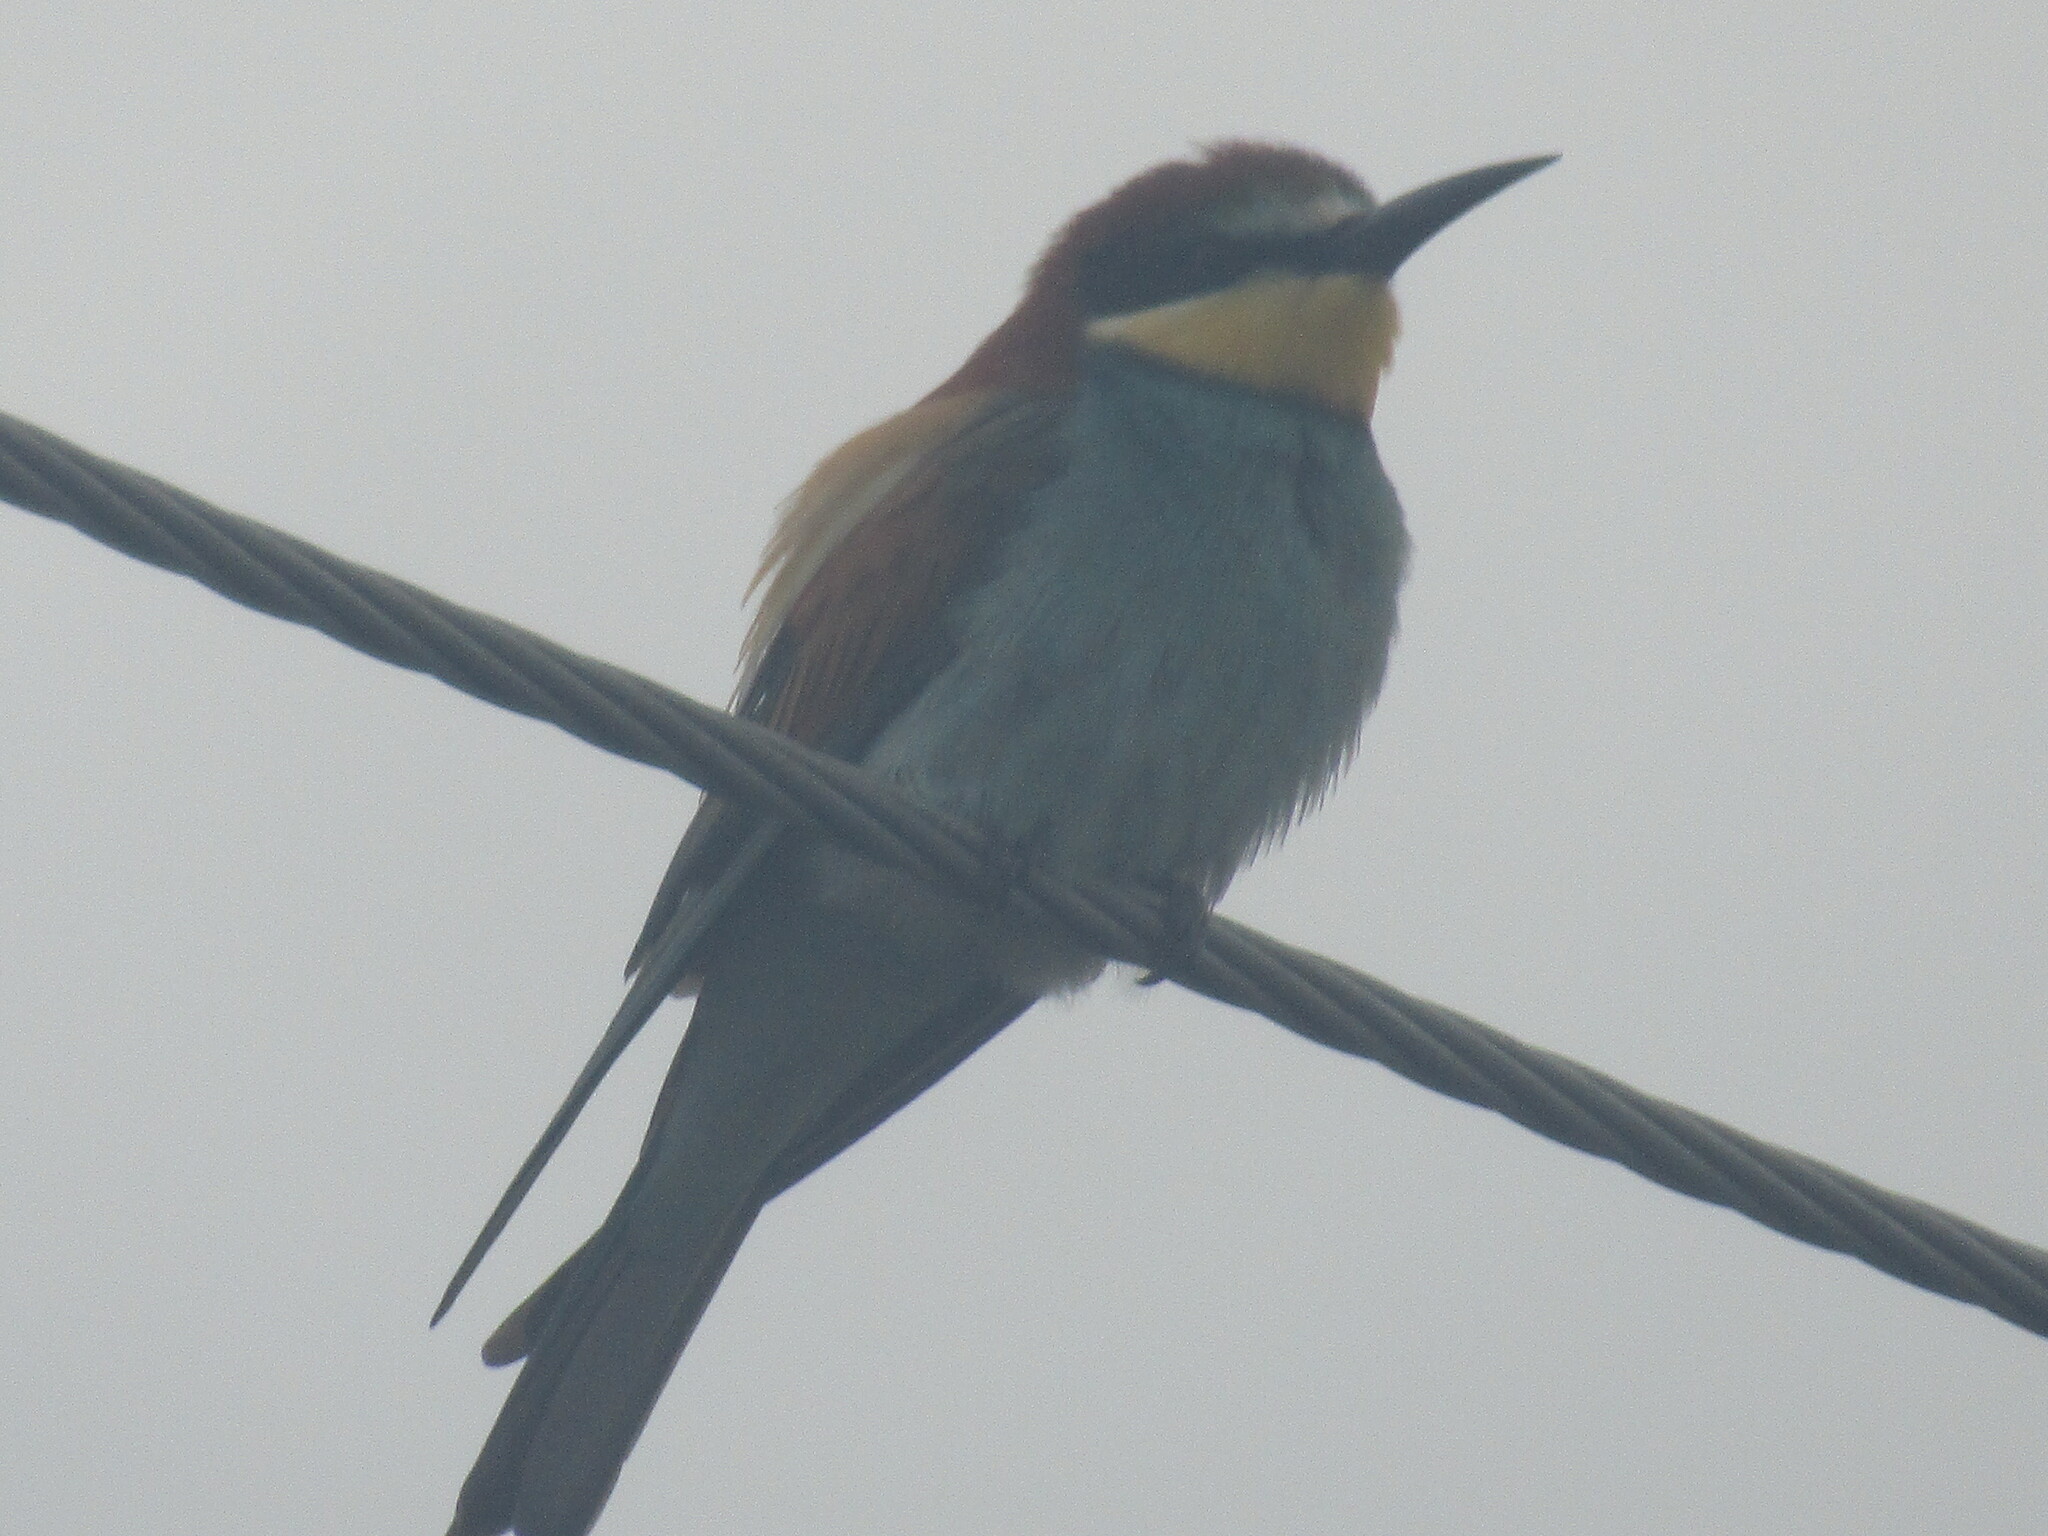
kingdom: Animalia
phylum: Chordata
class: Aves
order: Coraciiformes
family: Meropidae
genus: Merops
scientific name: Merops apiaster
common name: European bee-eater
